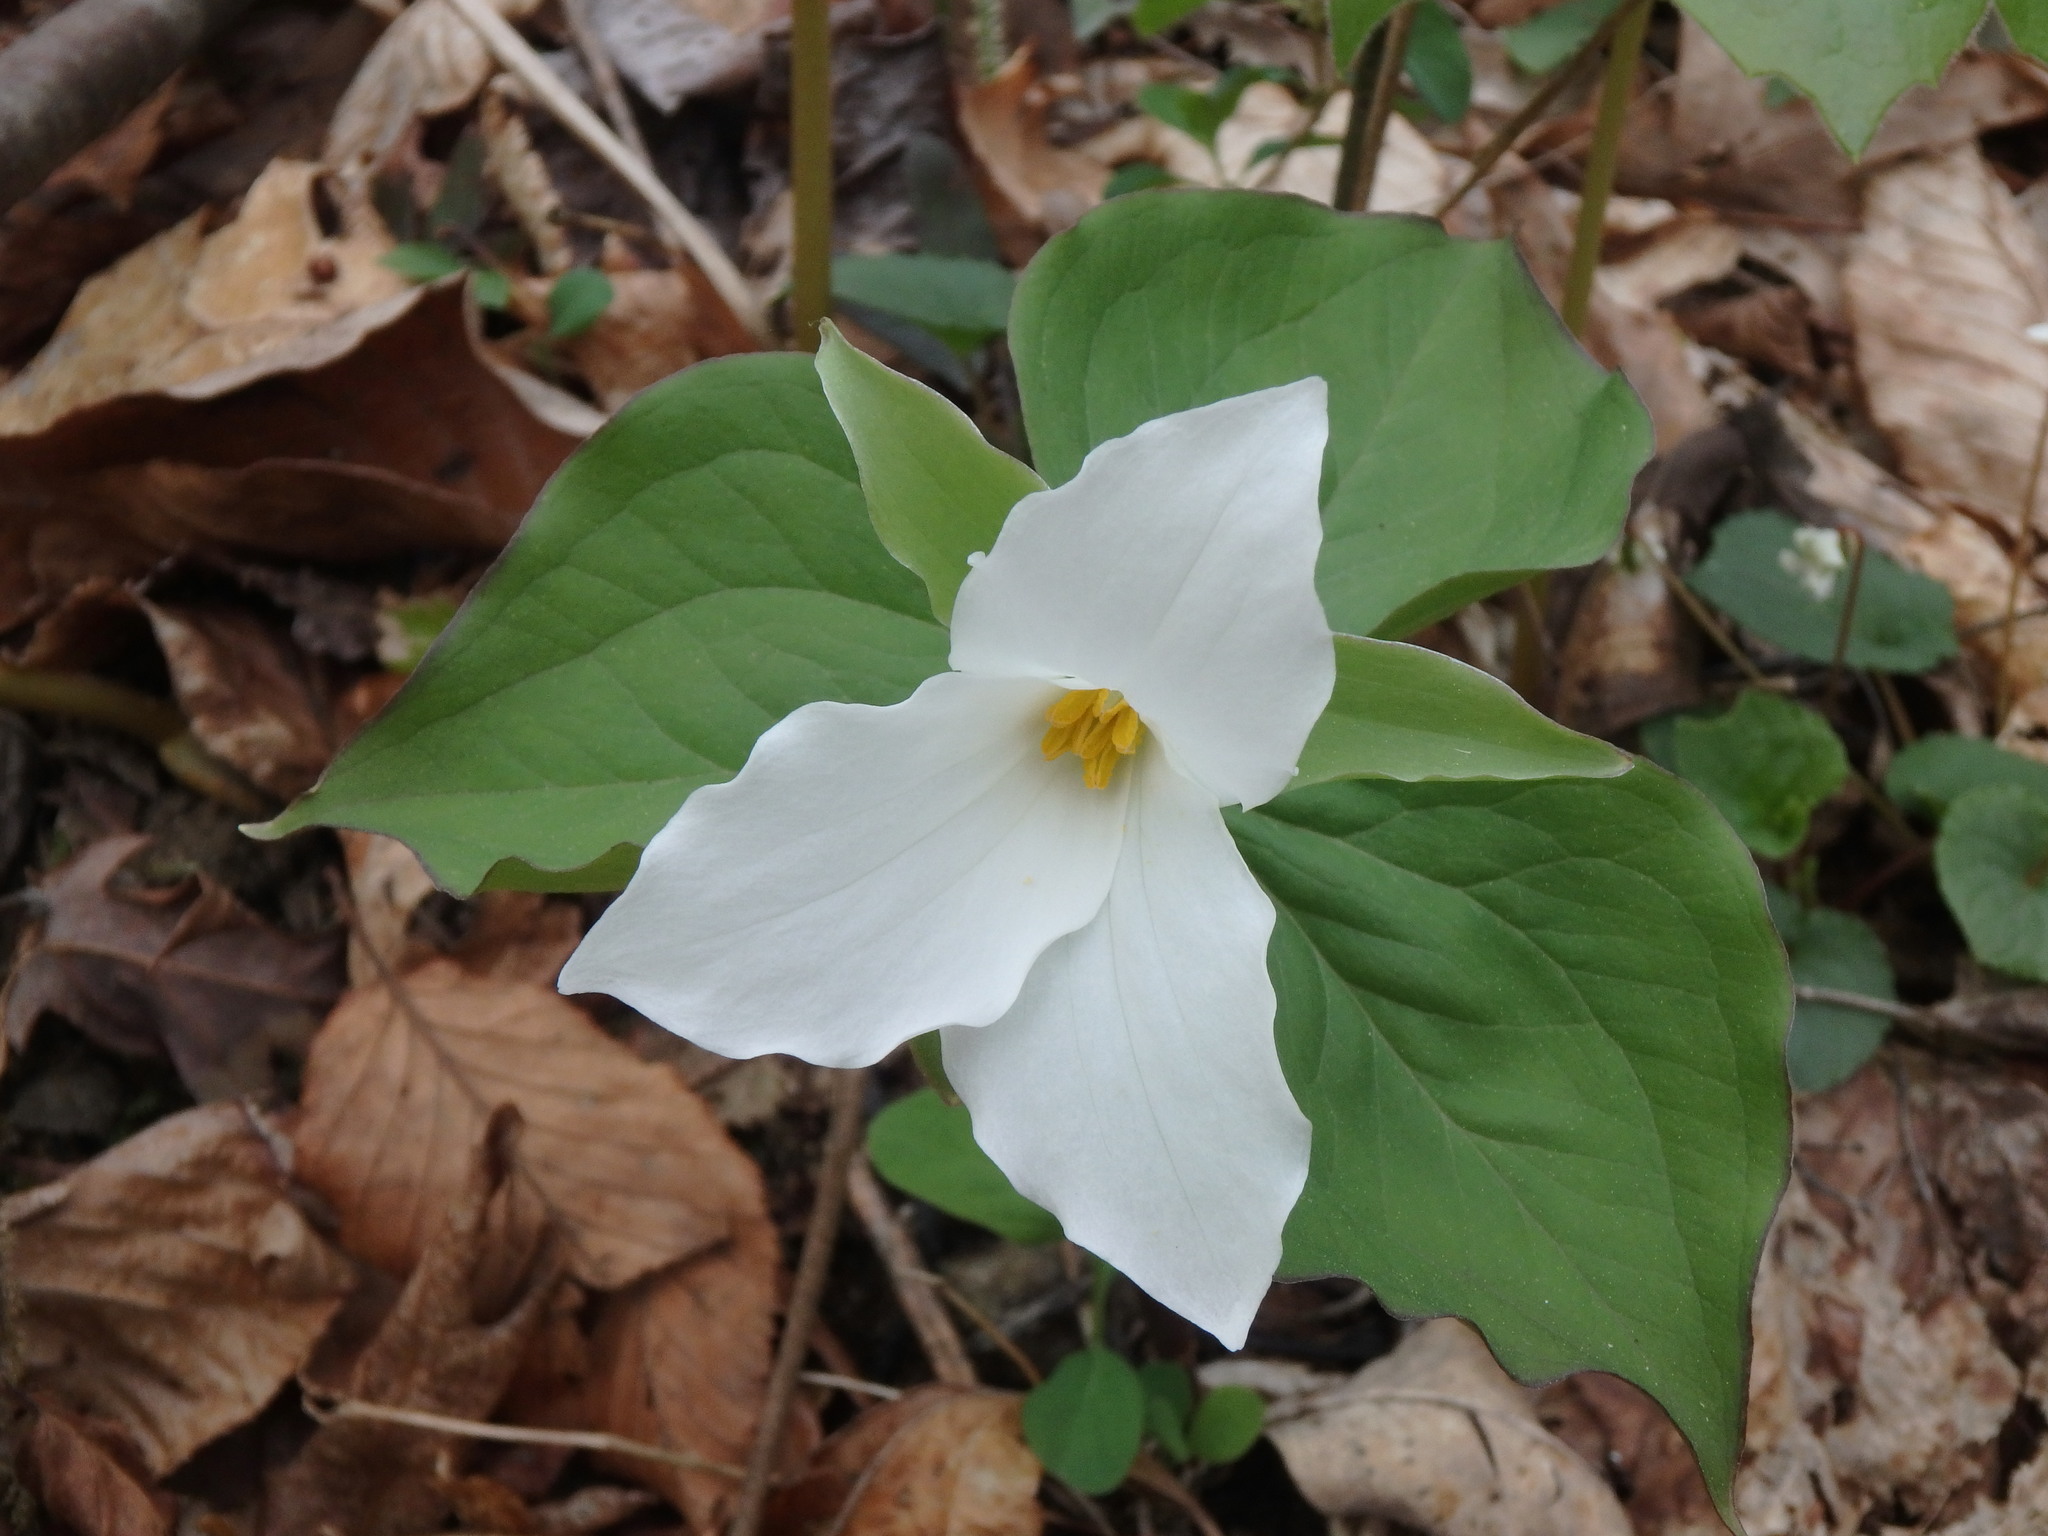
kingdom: Plantae
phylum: Tracheophyta
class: Liliopsida
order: Liliales
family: Melanthiaceae
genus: Trillium
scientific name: Trillium grandiflorum
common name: Great white trillium
